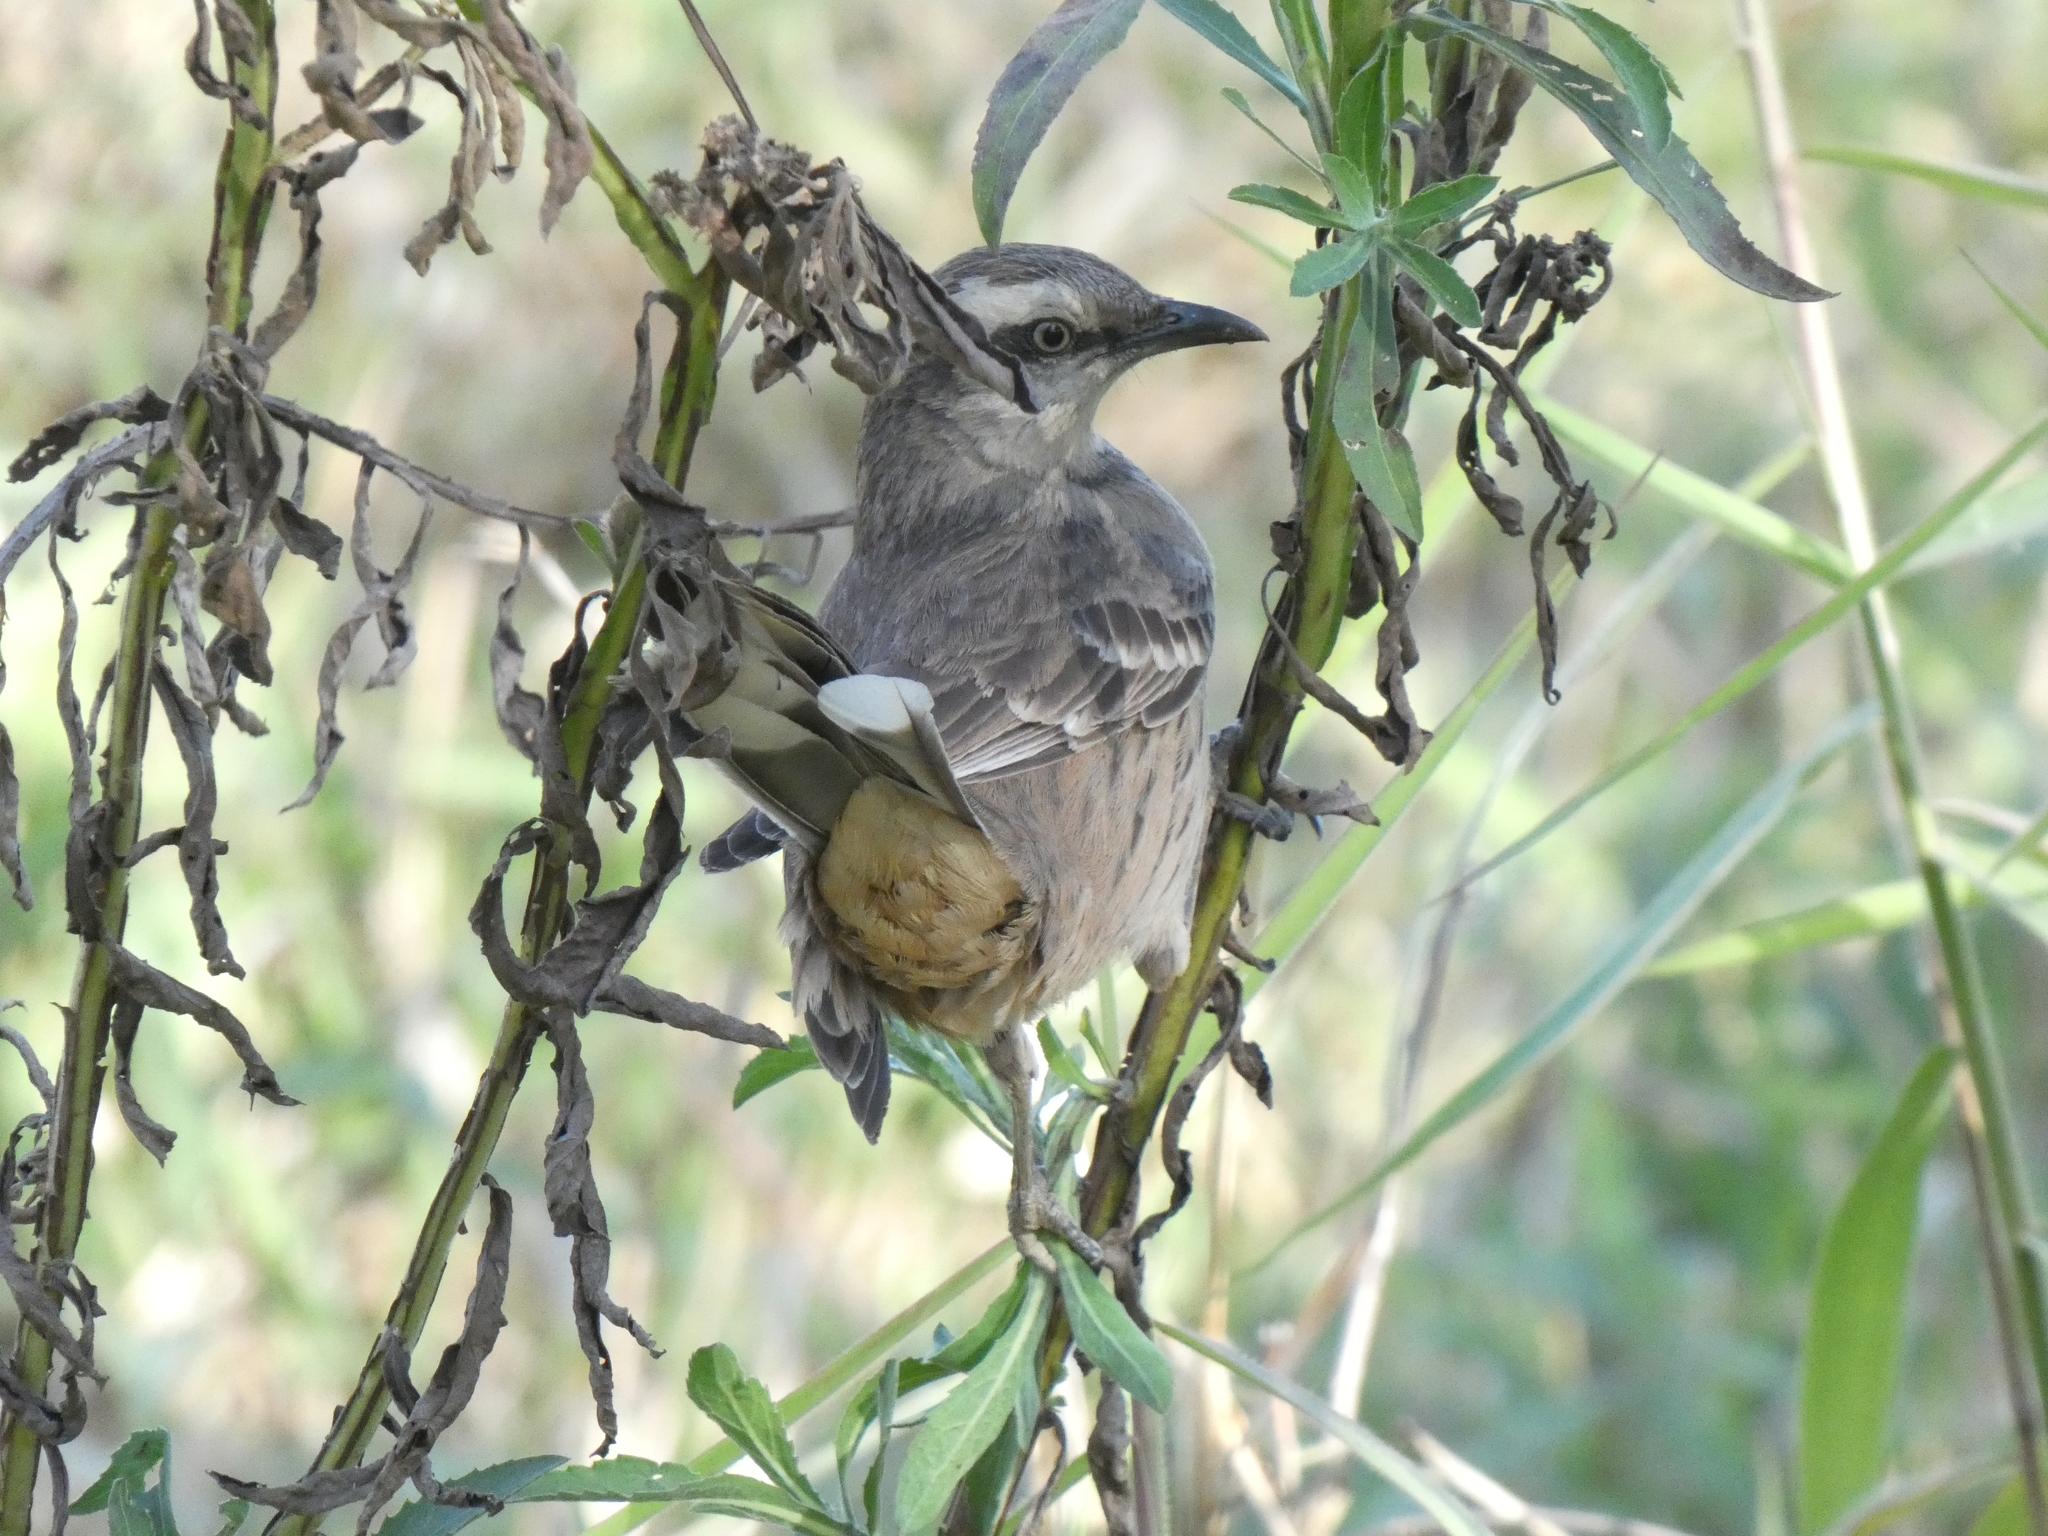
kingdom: Animalia
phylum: Chordata
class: Aves
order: Passeriformes
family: Mimidae
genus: Mimus
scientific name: Mimus saturninus
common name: Chalk-browed mockingbird
